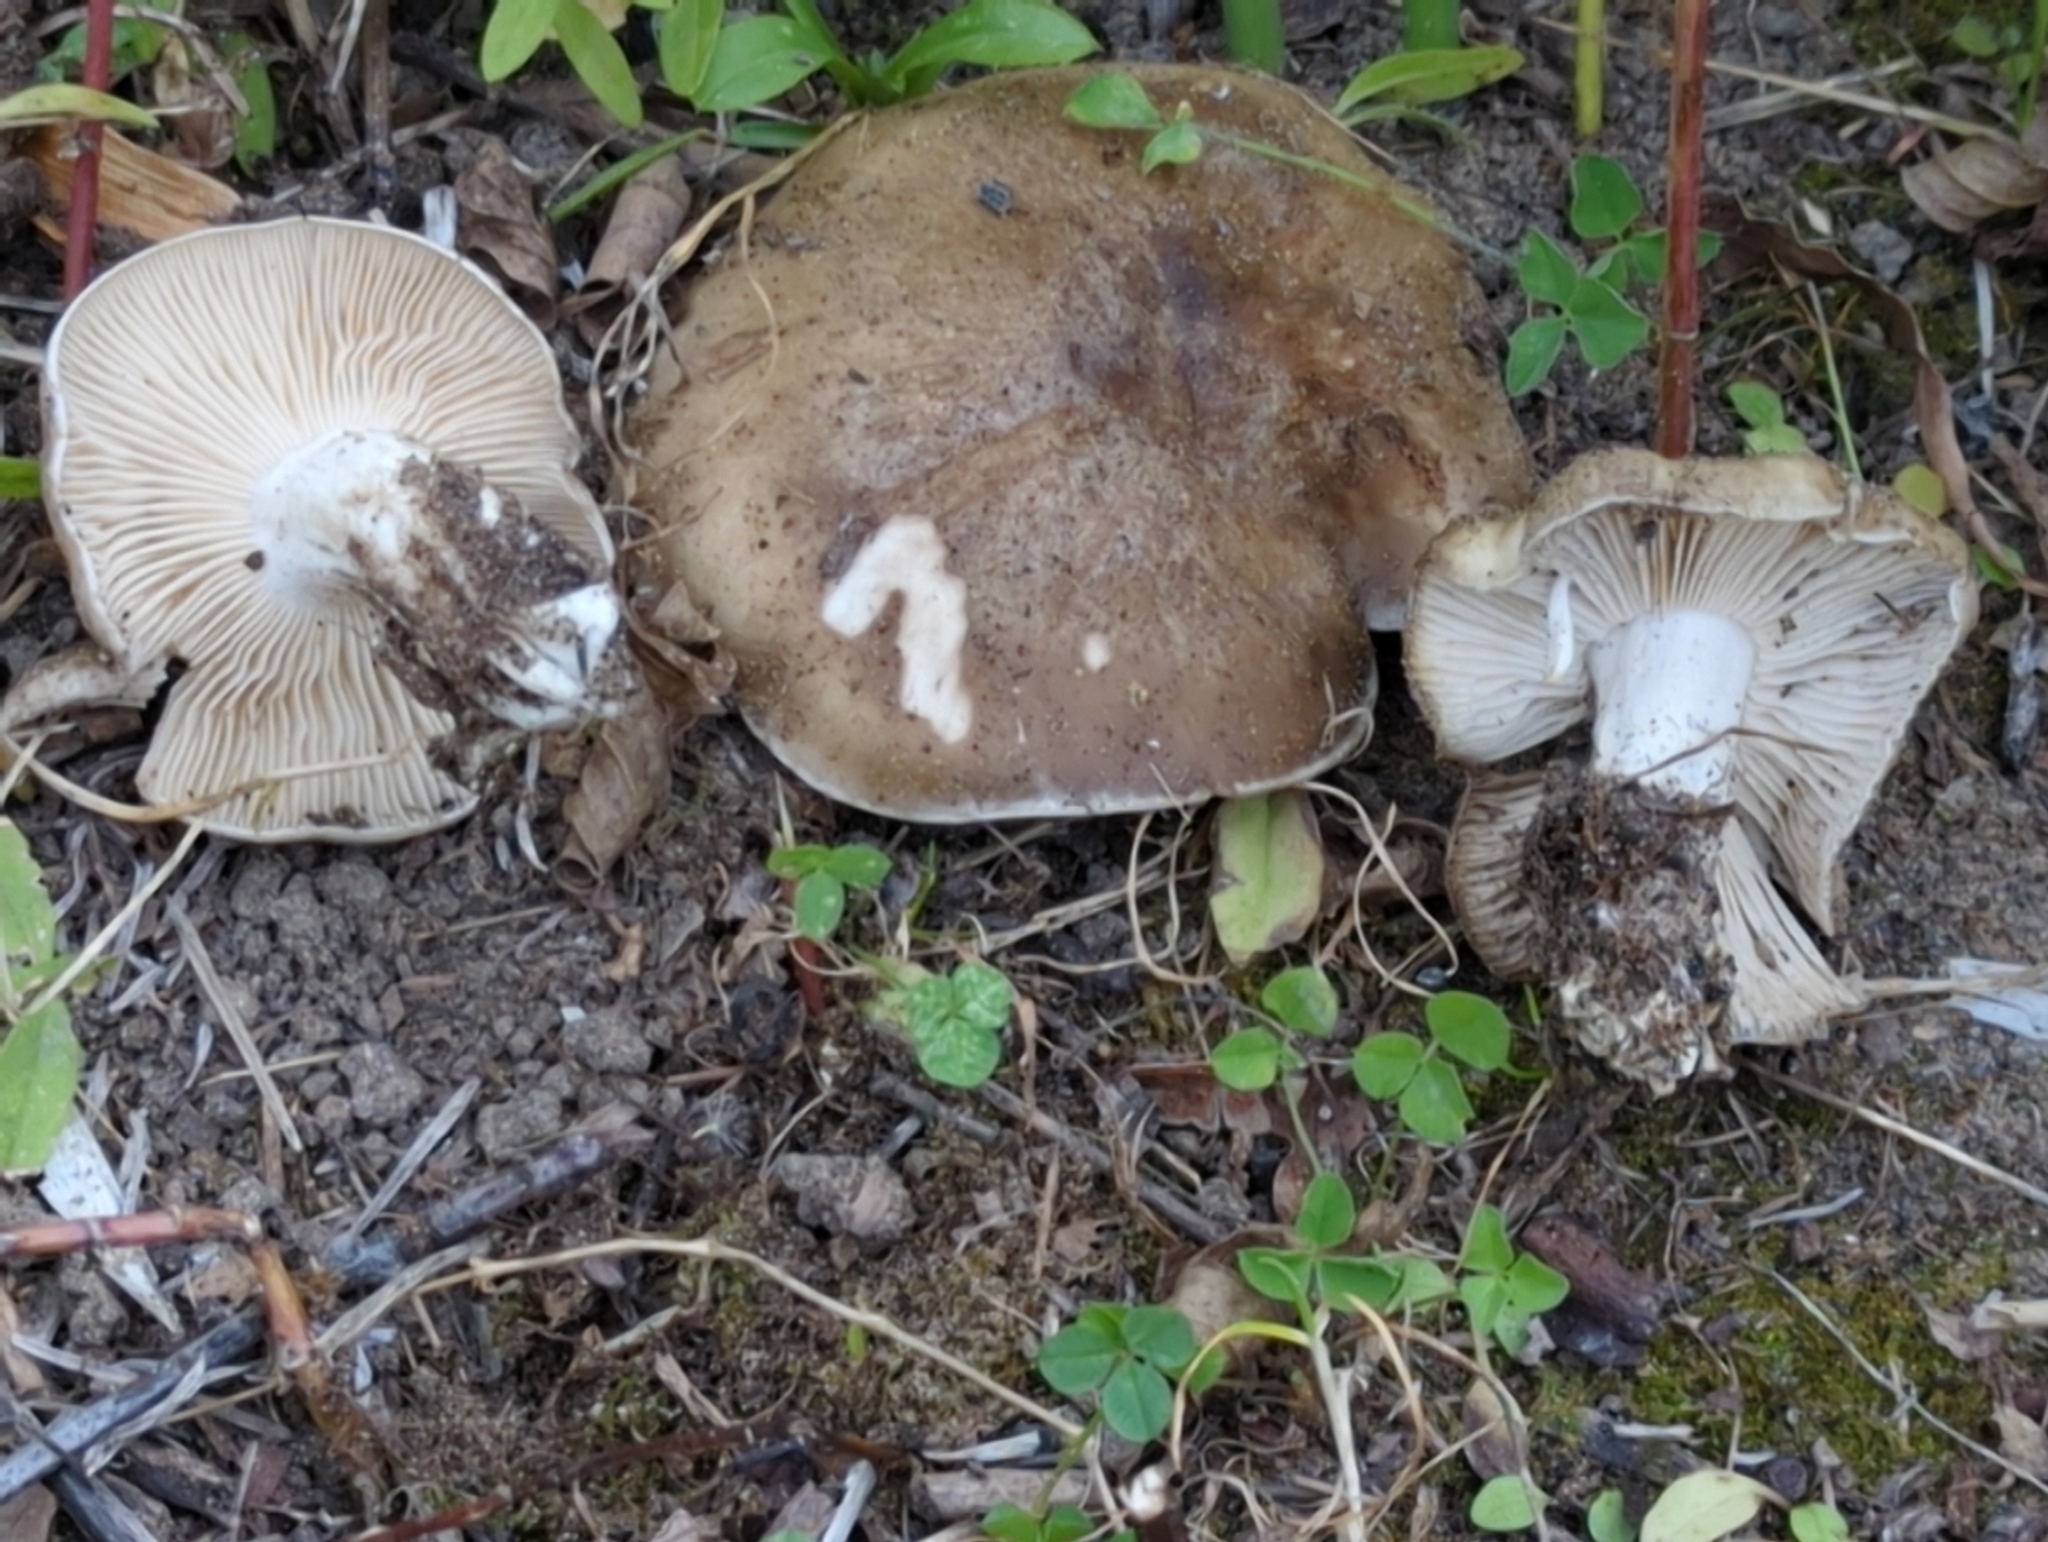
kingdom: Fungi
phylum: Basidiomycota
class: Agaricomycetes
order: Agaricales
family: Lyophyllaceae
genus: Lyophyllum
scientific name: Lyophyllum loricatum
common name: Gristly domecap
